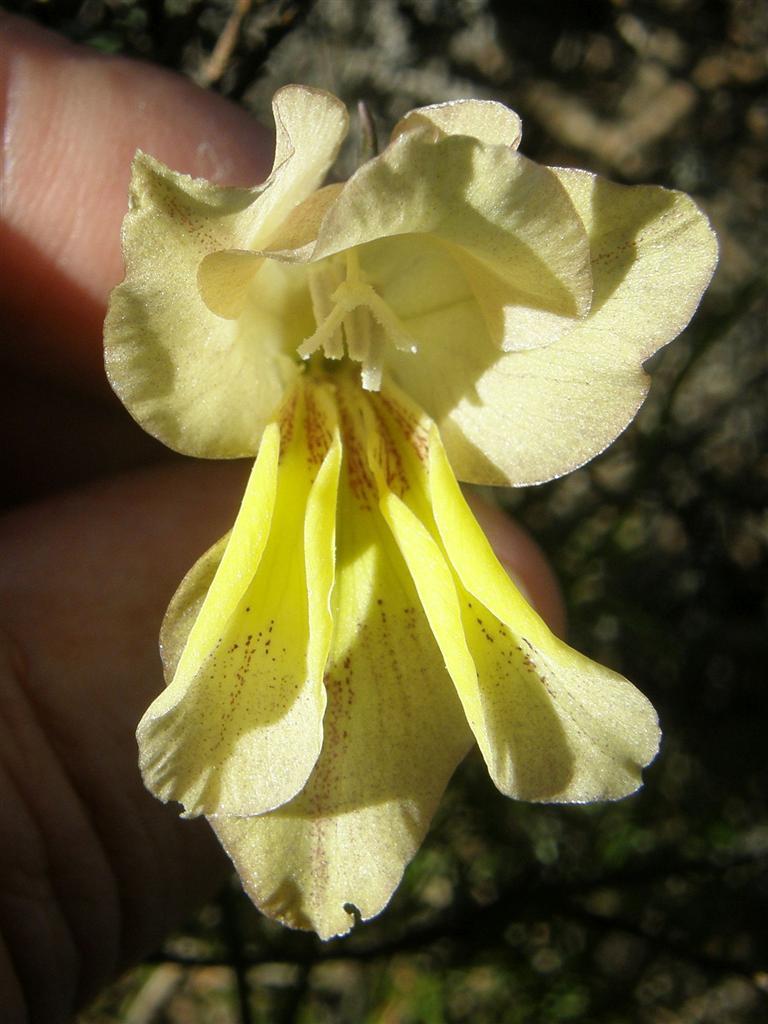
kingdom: Plantae
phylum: Tracheophyta
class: Liliopsida
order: Asparagales
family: Iridaceae
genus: Gladiolus
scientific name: Gladiolus carinatus
